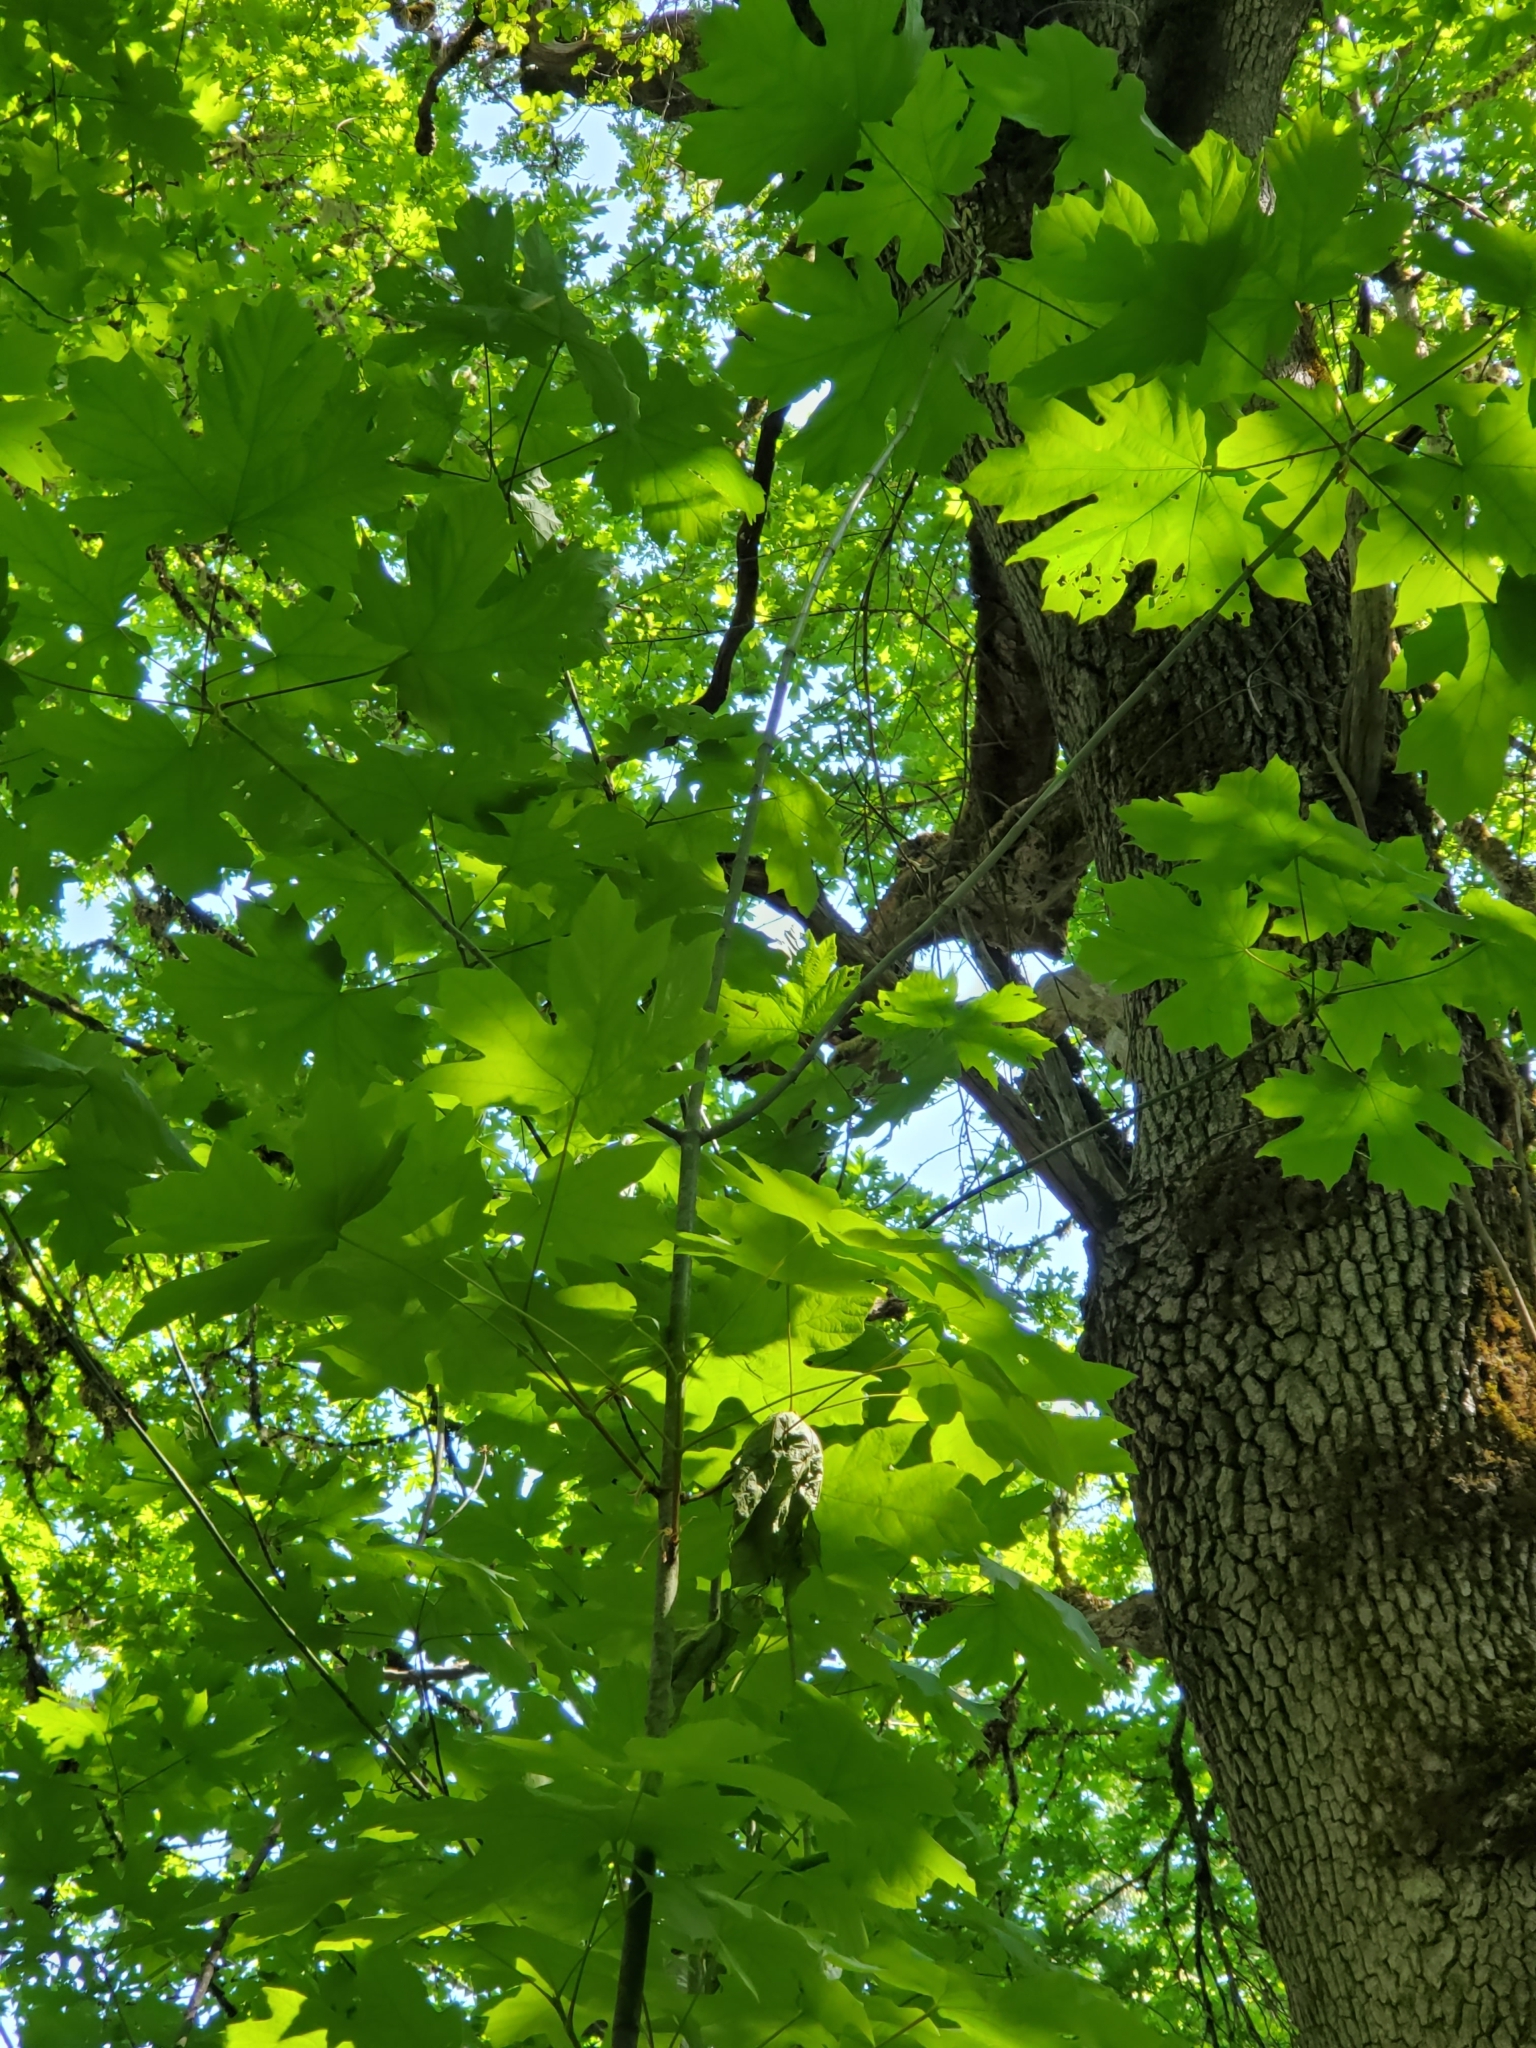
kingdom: Plantae
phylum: Tracheophyta
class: Magnoliopsida
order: Sapindales
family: Sapindaceae
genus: Acer
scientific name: Acer macrophyllum
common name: Oregon maple
